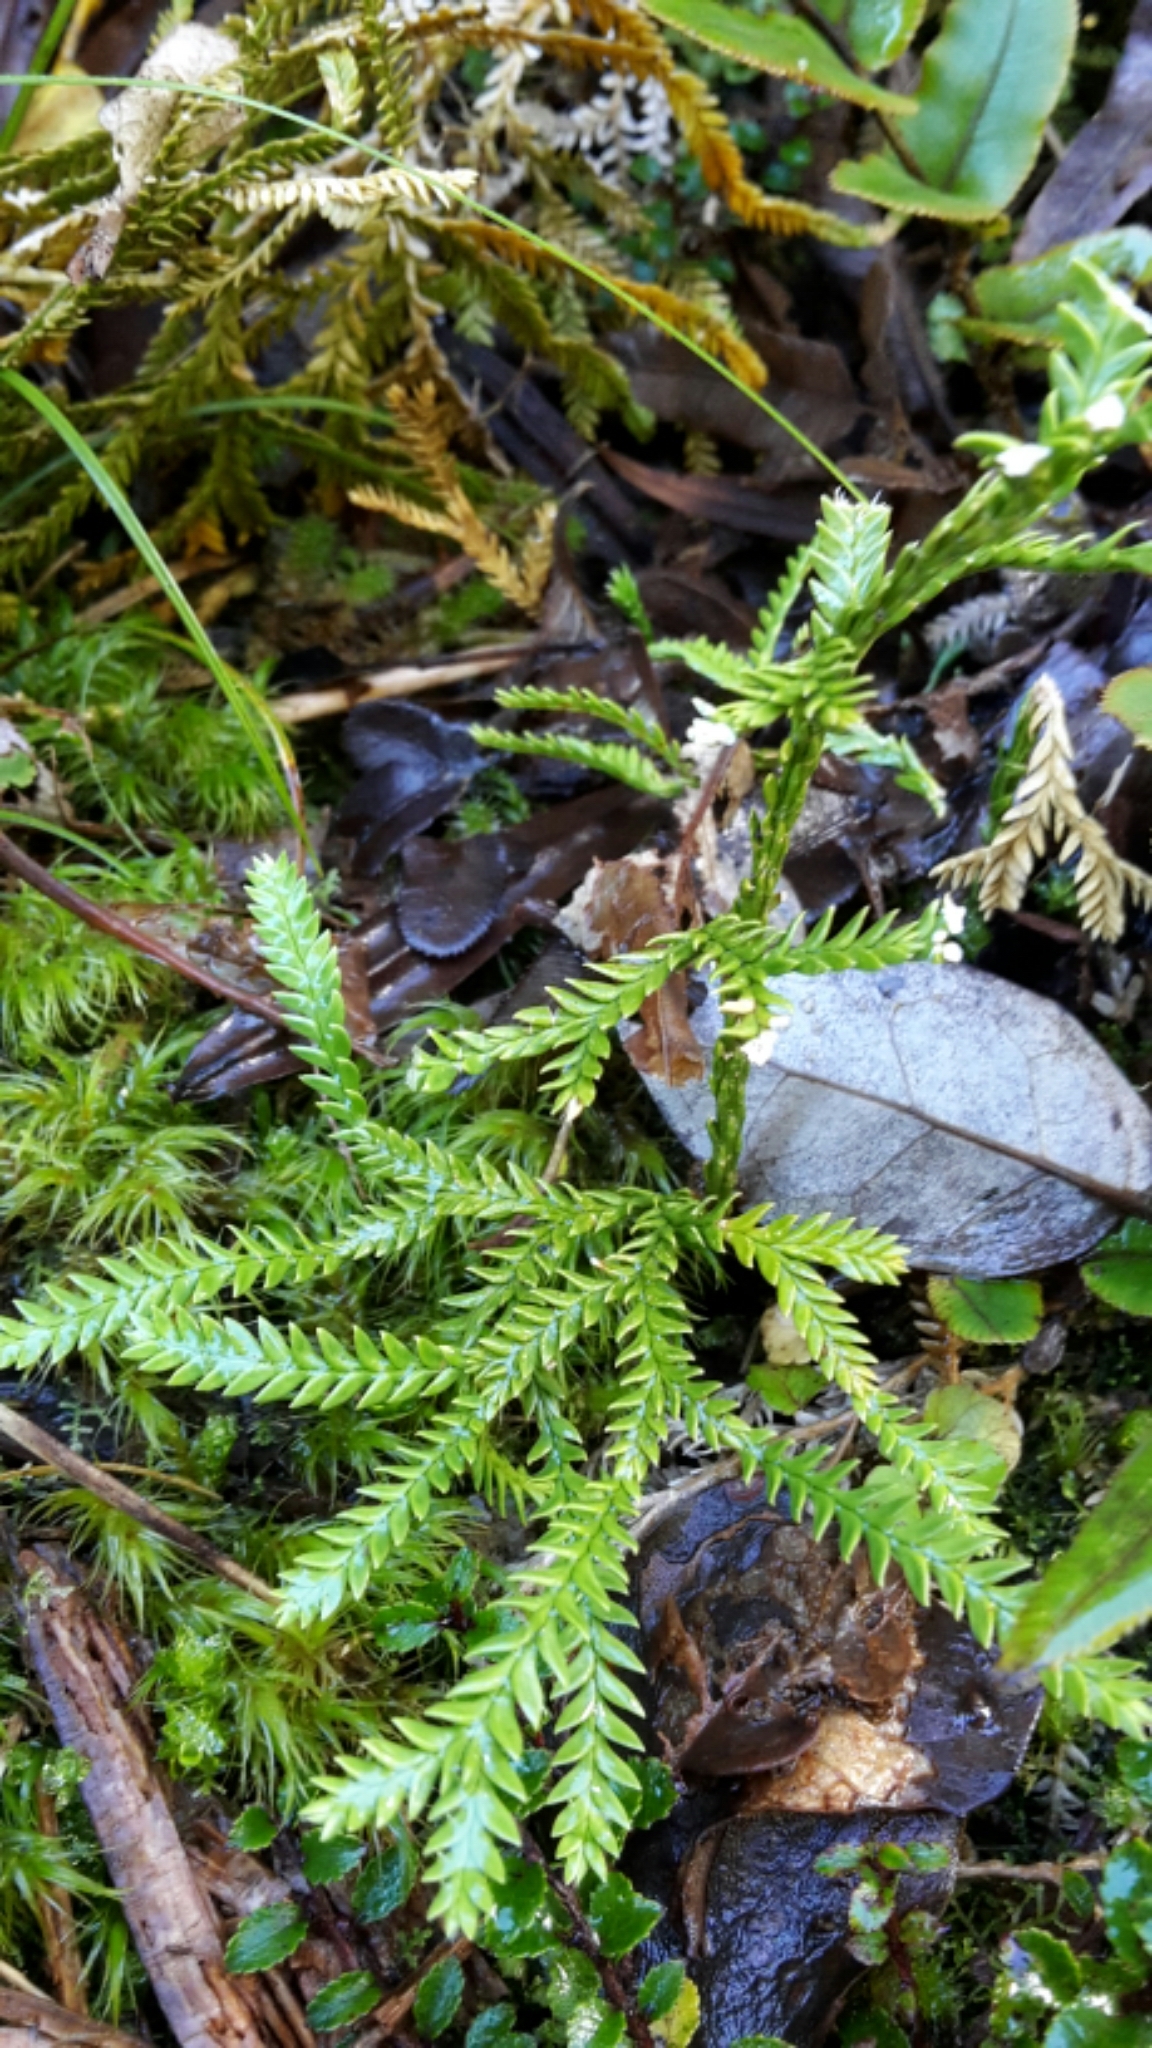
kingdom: Plantae
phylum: Tracheophyta
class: Lycopodiopsida
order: Lycopodiales
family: Lycopodiaceae
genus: Diphasium
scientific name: Diphasium scariosum
